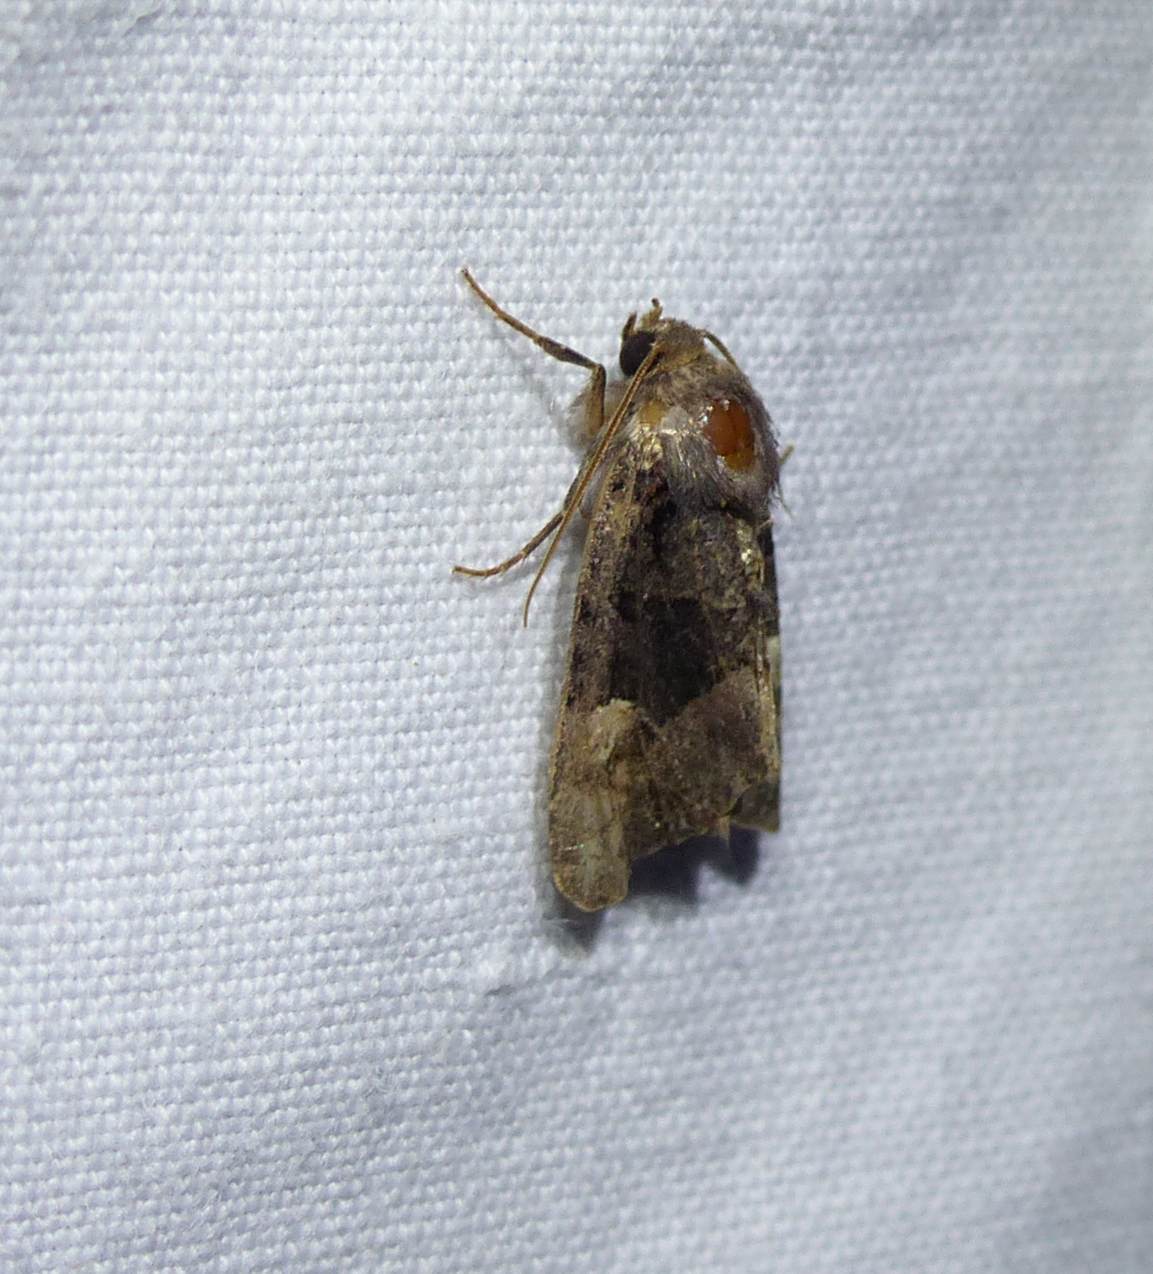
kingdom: Animalia
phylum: Arthropoda
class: Insecta
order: Lepidoptera
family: Noctuidae
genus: Euplexia
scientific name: Euplexia benesimilis
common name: American angle shades
